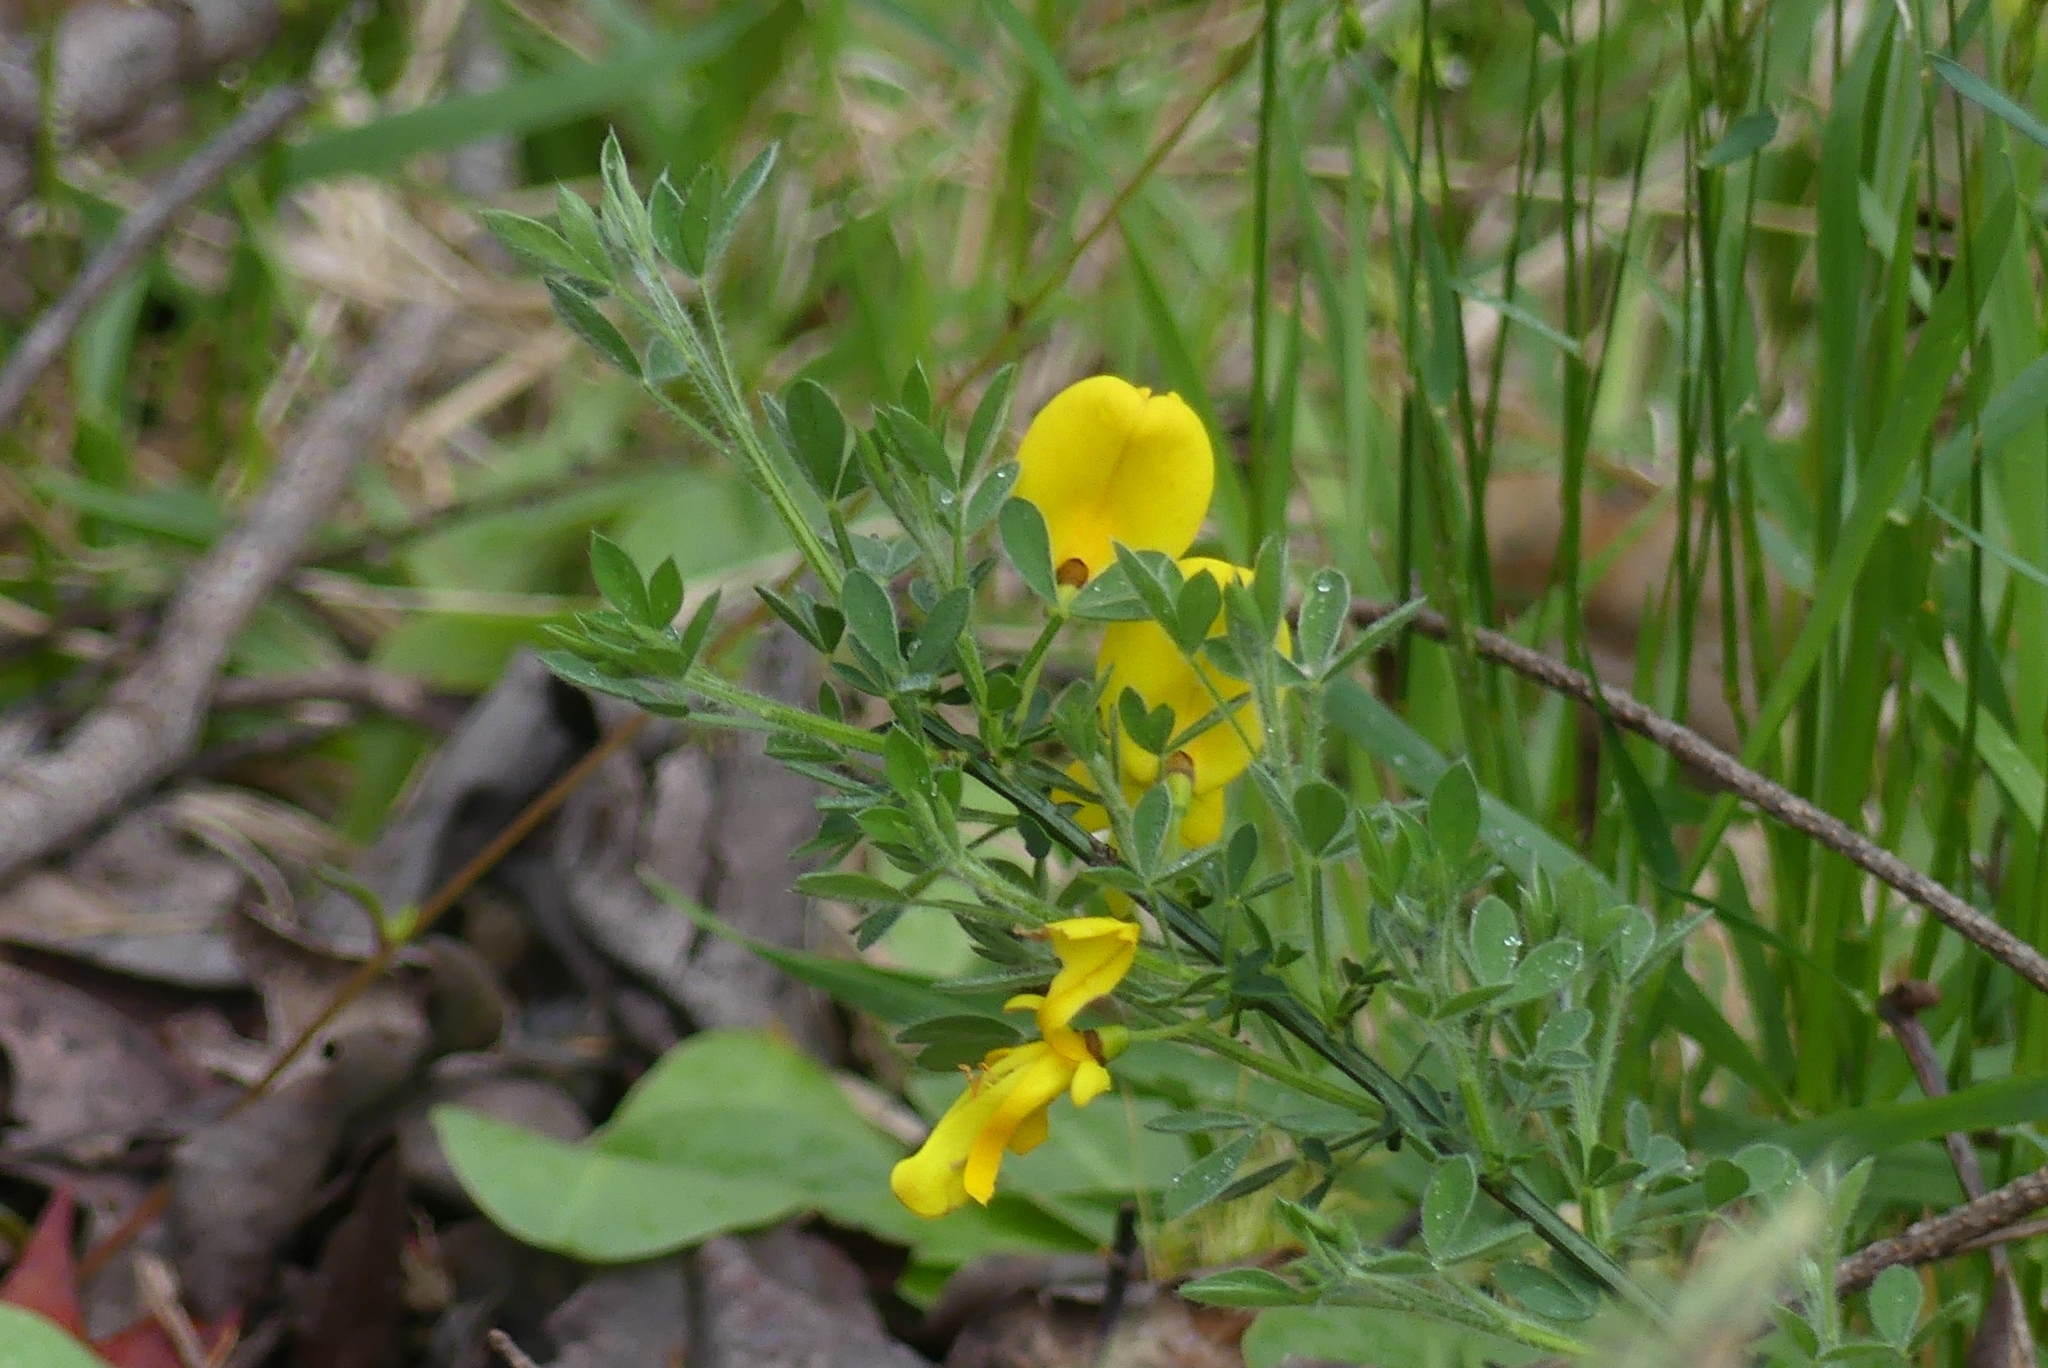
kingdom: Plantae
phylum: Tracheophyta
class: Magnoliopsida
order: Fabales
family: Fabaceae
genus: Cytisus
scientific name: Cytisus scoparius
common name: Scotch broom
